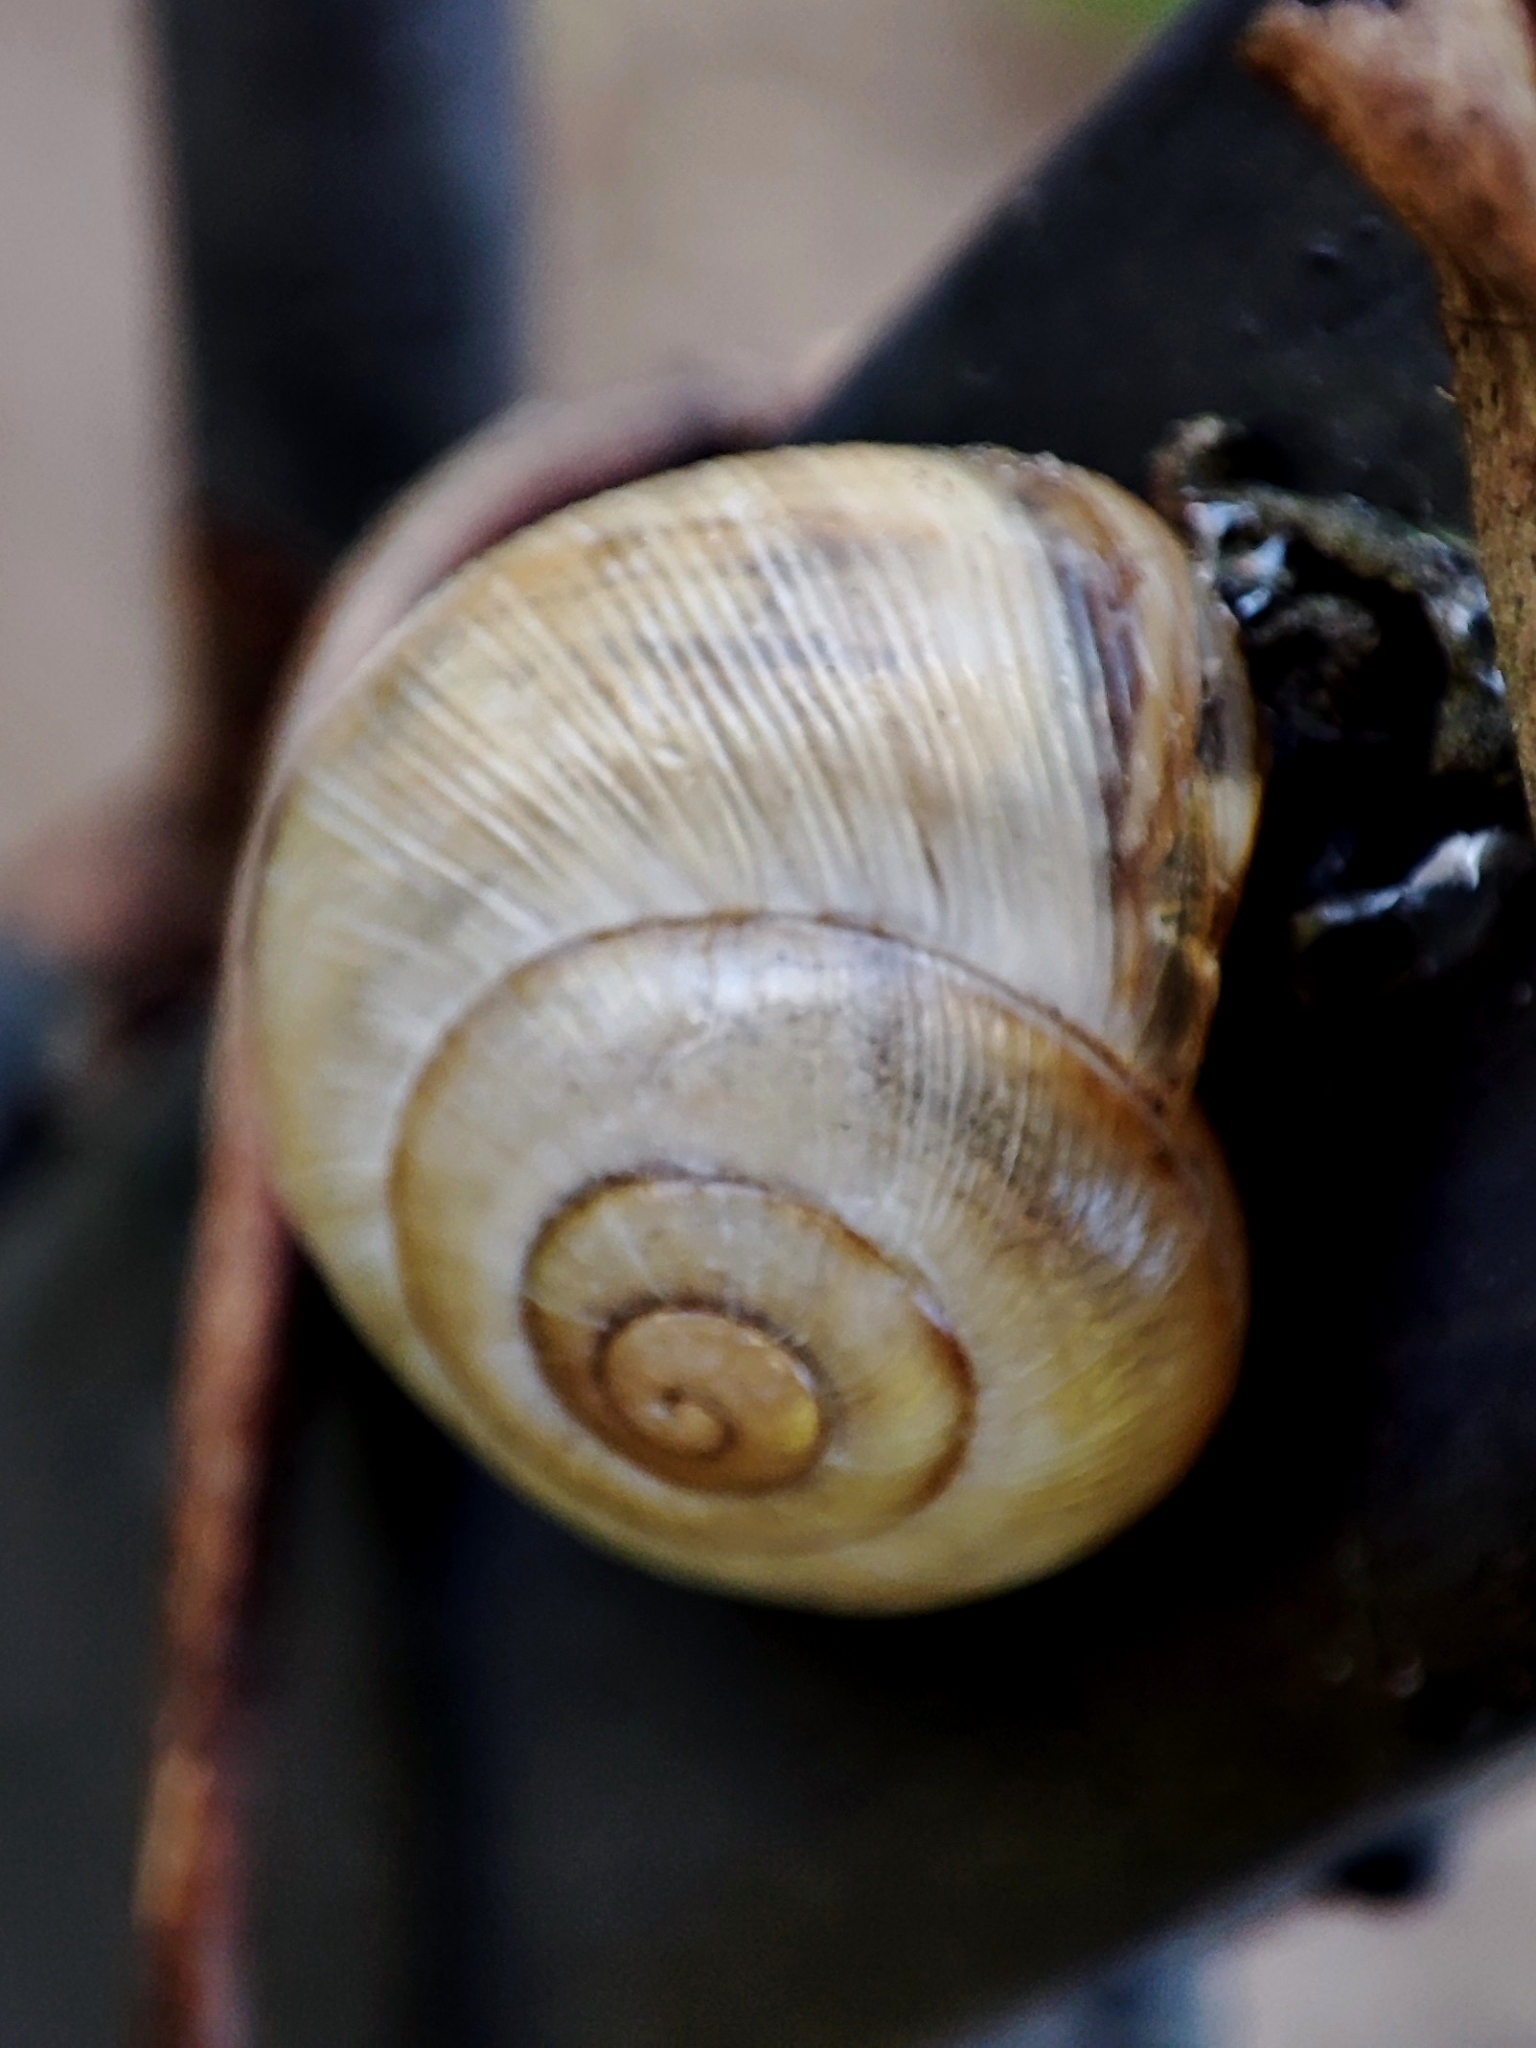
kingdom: Animalia
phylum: Mollusca
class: Gastropoda
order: Stylommatophora
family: Helicidae
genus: Caucasotachea
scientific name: Caucasotachea vindobonensis
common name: European helicid land snail
